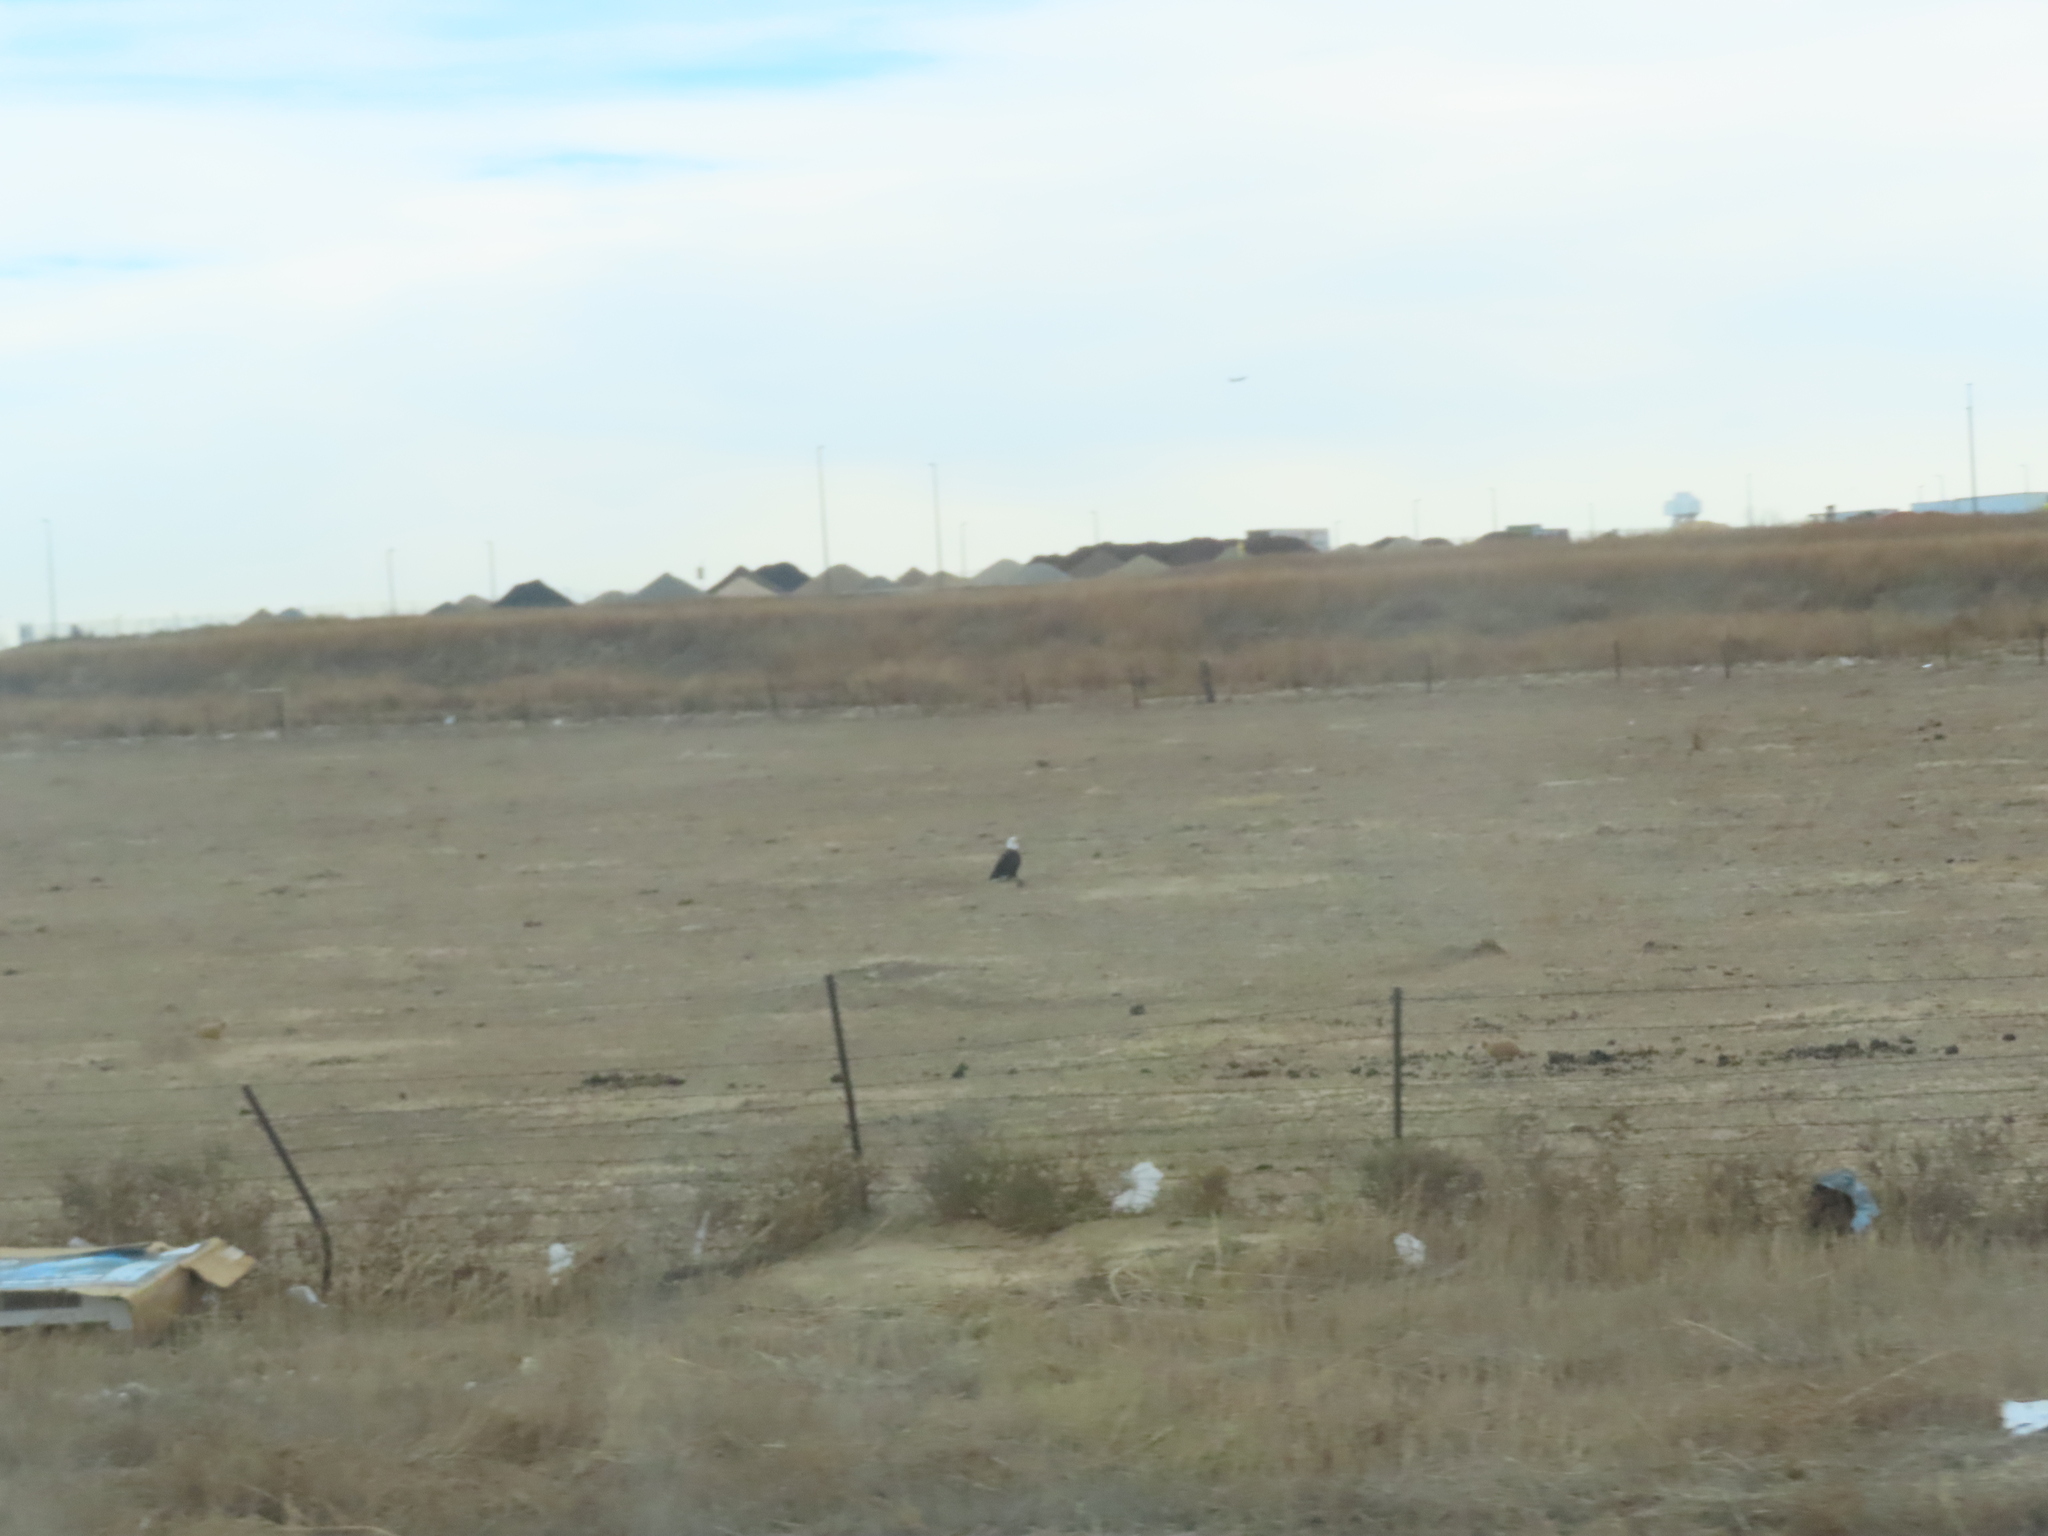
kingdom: Animalia
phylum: Chordata
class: Aves
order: Accipitriformes
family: Accipitridae
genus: Haliaeetus
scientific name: Haliaeetus leucocephalus
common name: Bald eagle
